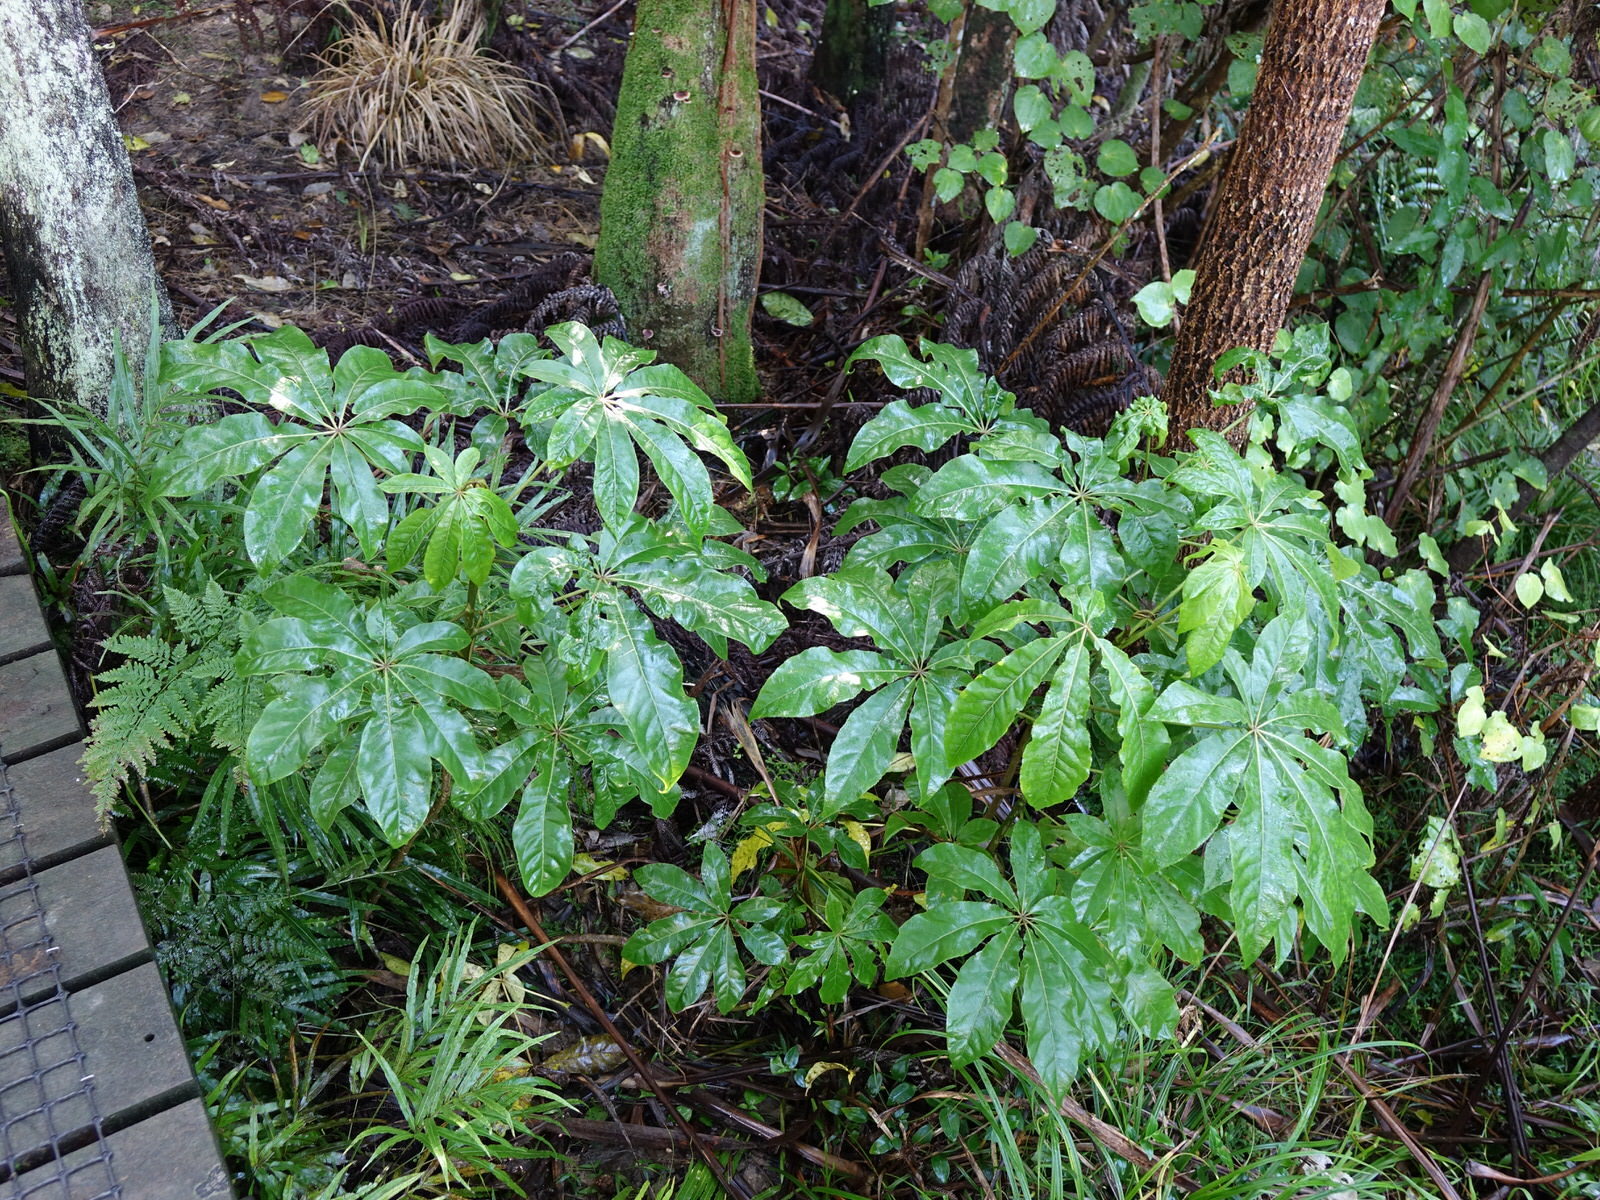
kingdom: Plantae
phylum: Tracheophyta
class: Magnoliopsida
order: Apiales
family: Araliaceae
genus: Schefflera
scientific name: Schefflera digitata
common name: Pate
